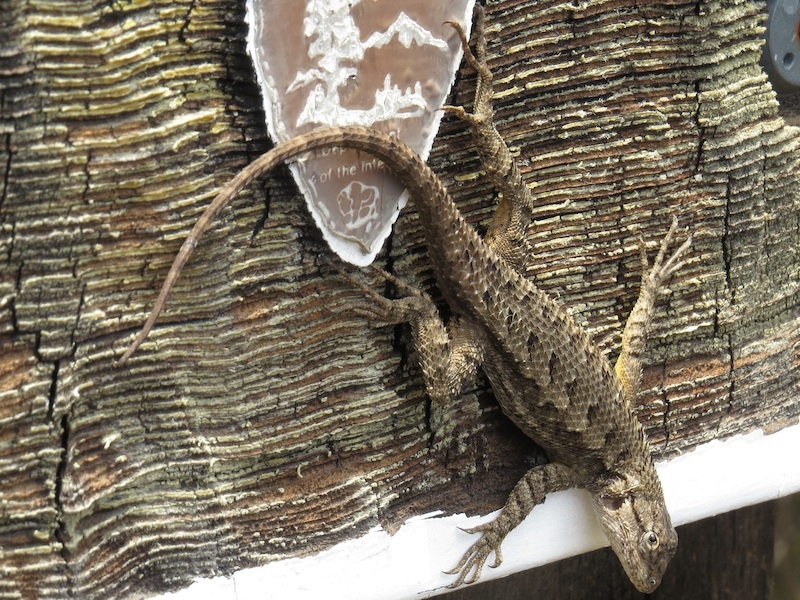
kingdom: Animalia
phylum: Chordata
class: Squamata
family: Phrynosomatidae
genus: Sceloporus
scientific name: Sceloporus occidentalis
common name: Western fence lizard
